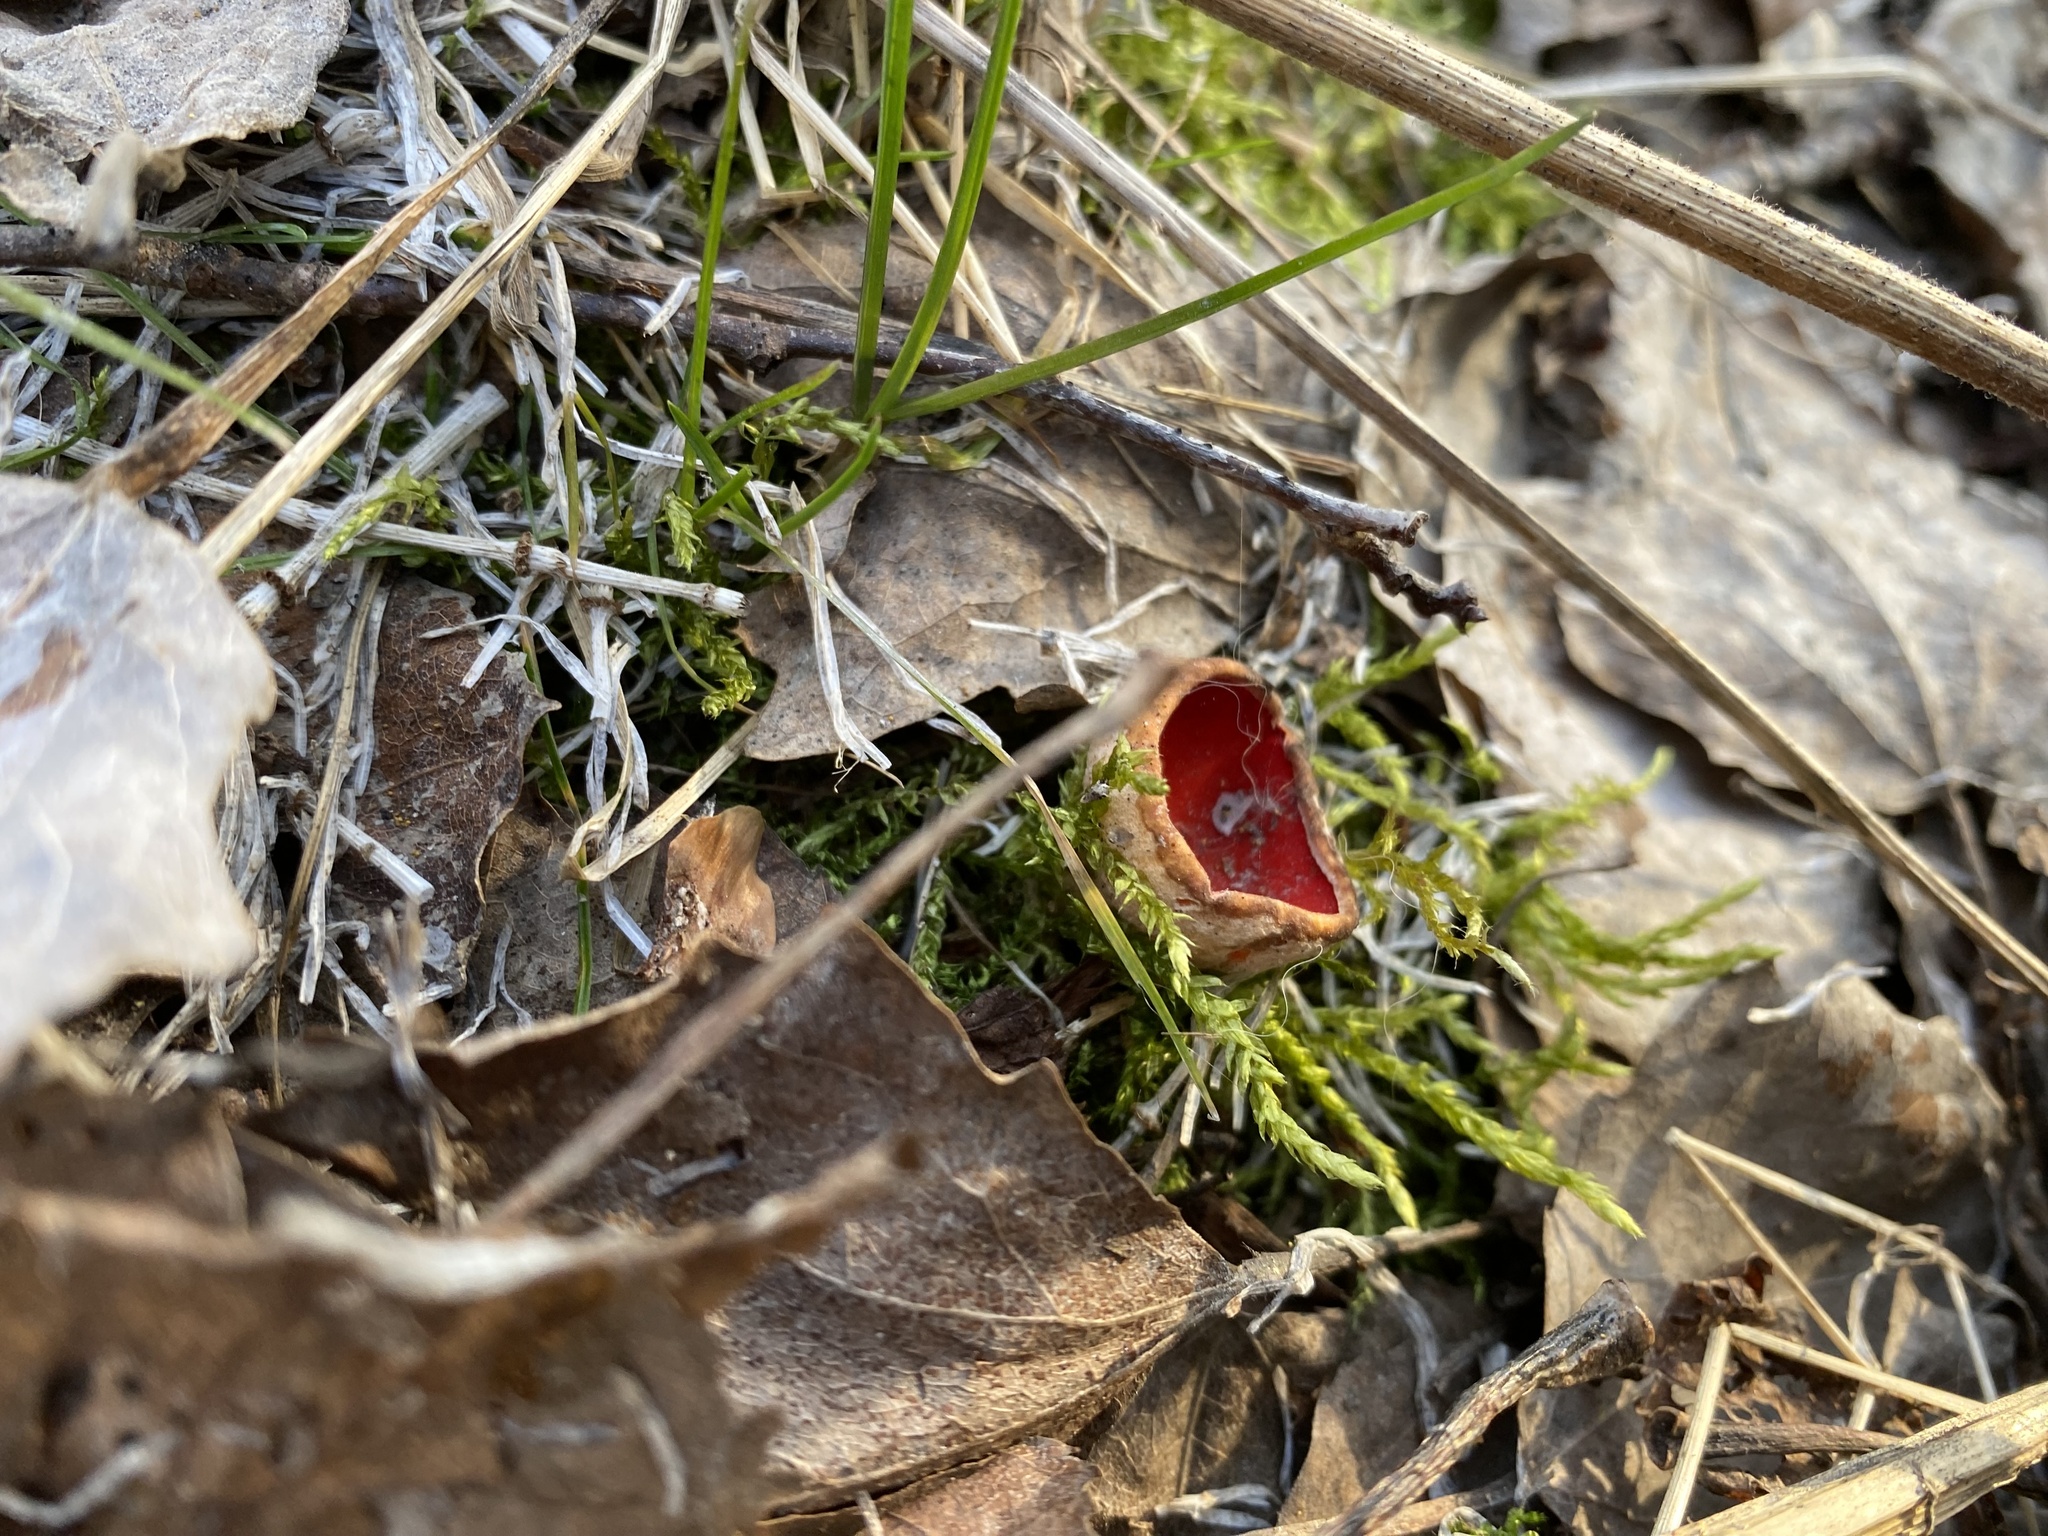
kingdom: Fungi
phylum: Ascomycota
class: Pezizomycetes
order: Pezizales
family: Sarcoscyphaceae
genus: Sarcoscypha
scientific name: Sarcoscypha austriaca
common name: Scarlet elfcup
